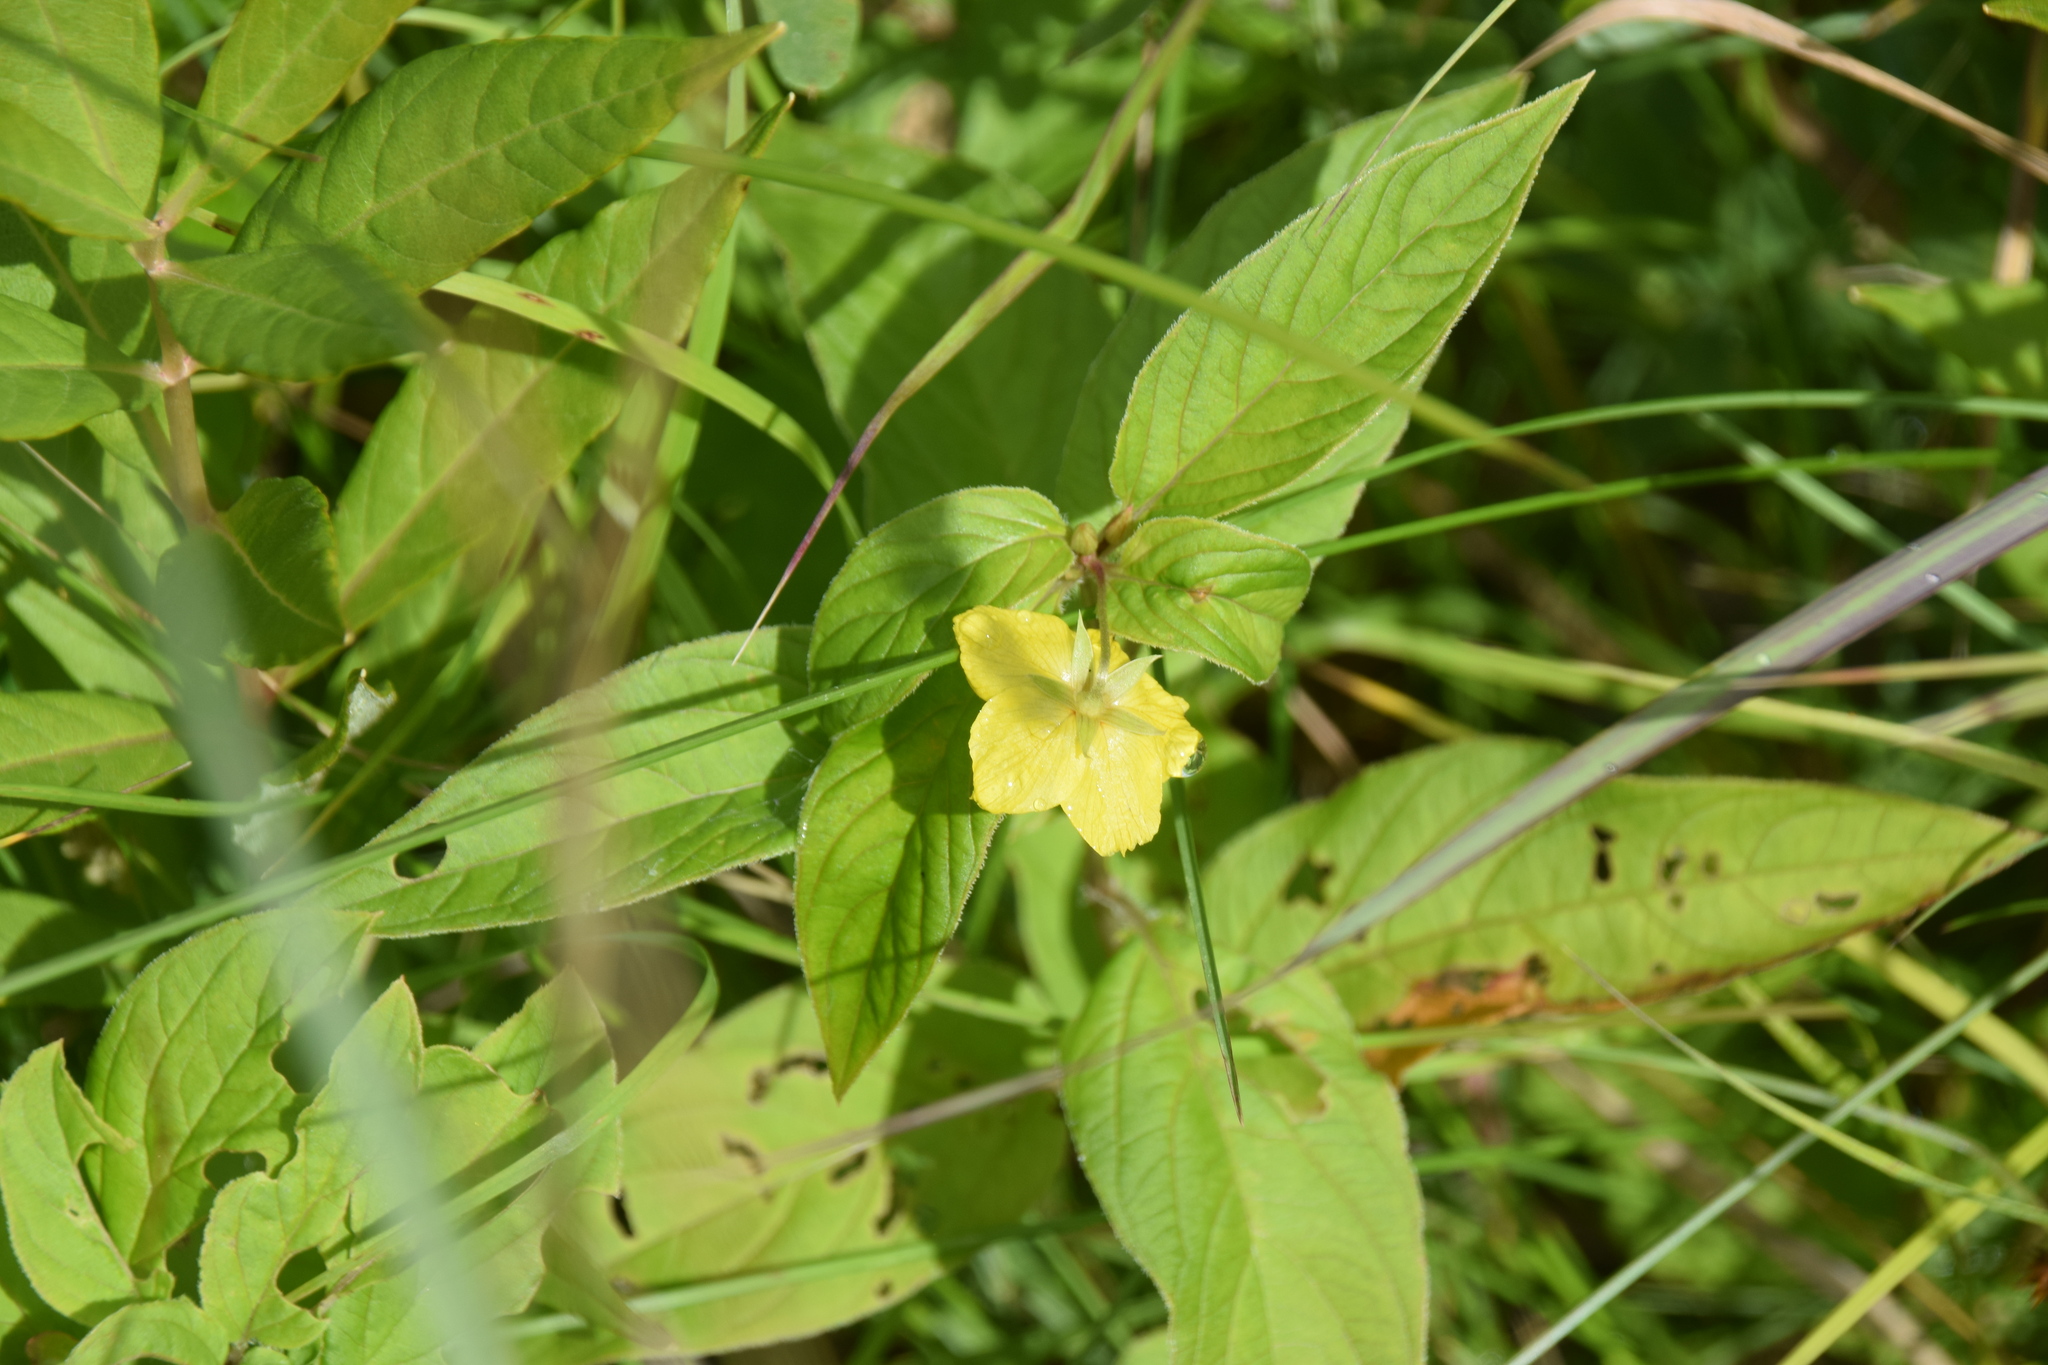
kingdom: Plantae
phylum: Tracheophyta
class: Magnoliopsida
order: Ericales
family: Primulaceae
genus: Lysimachia
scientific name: Lysimachia ciliata
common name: Fringed loosestrife
